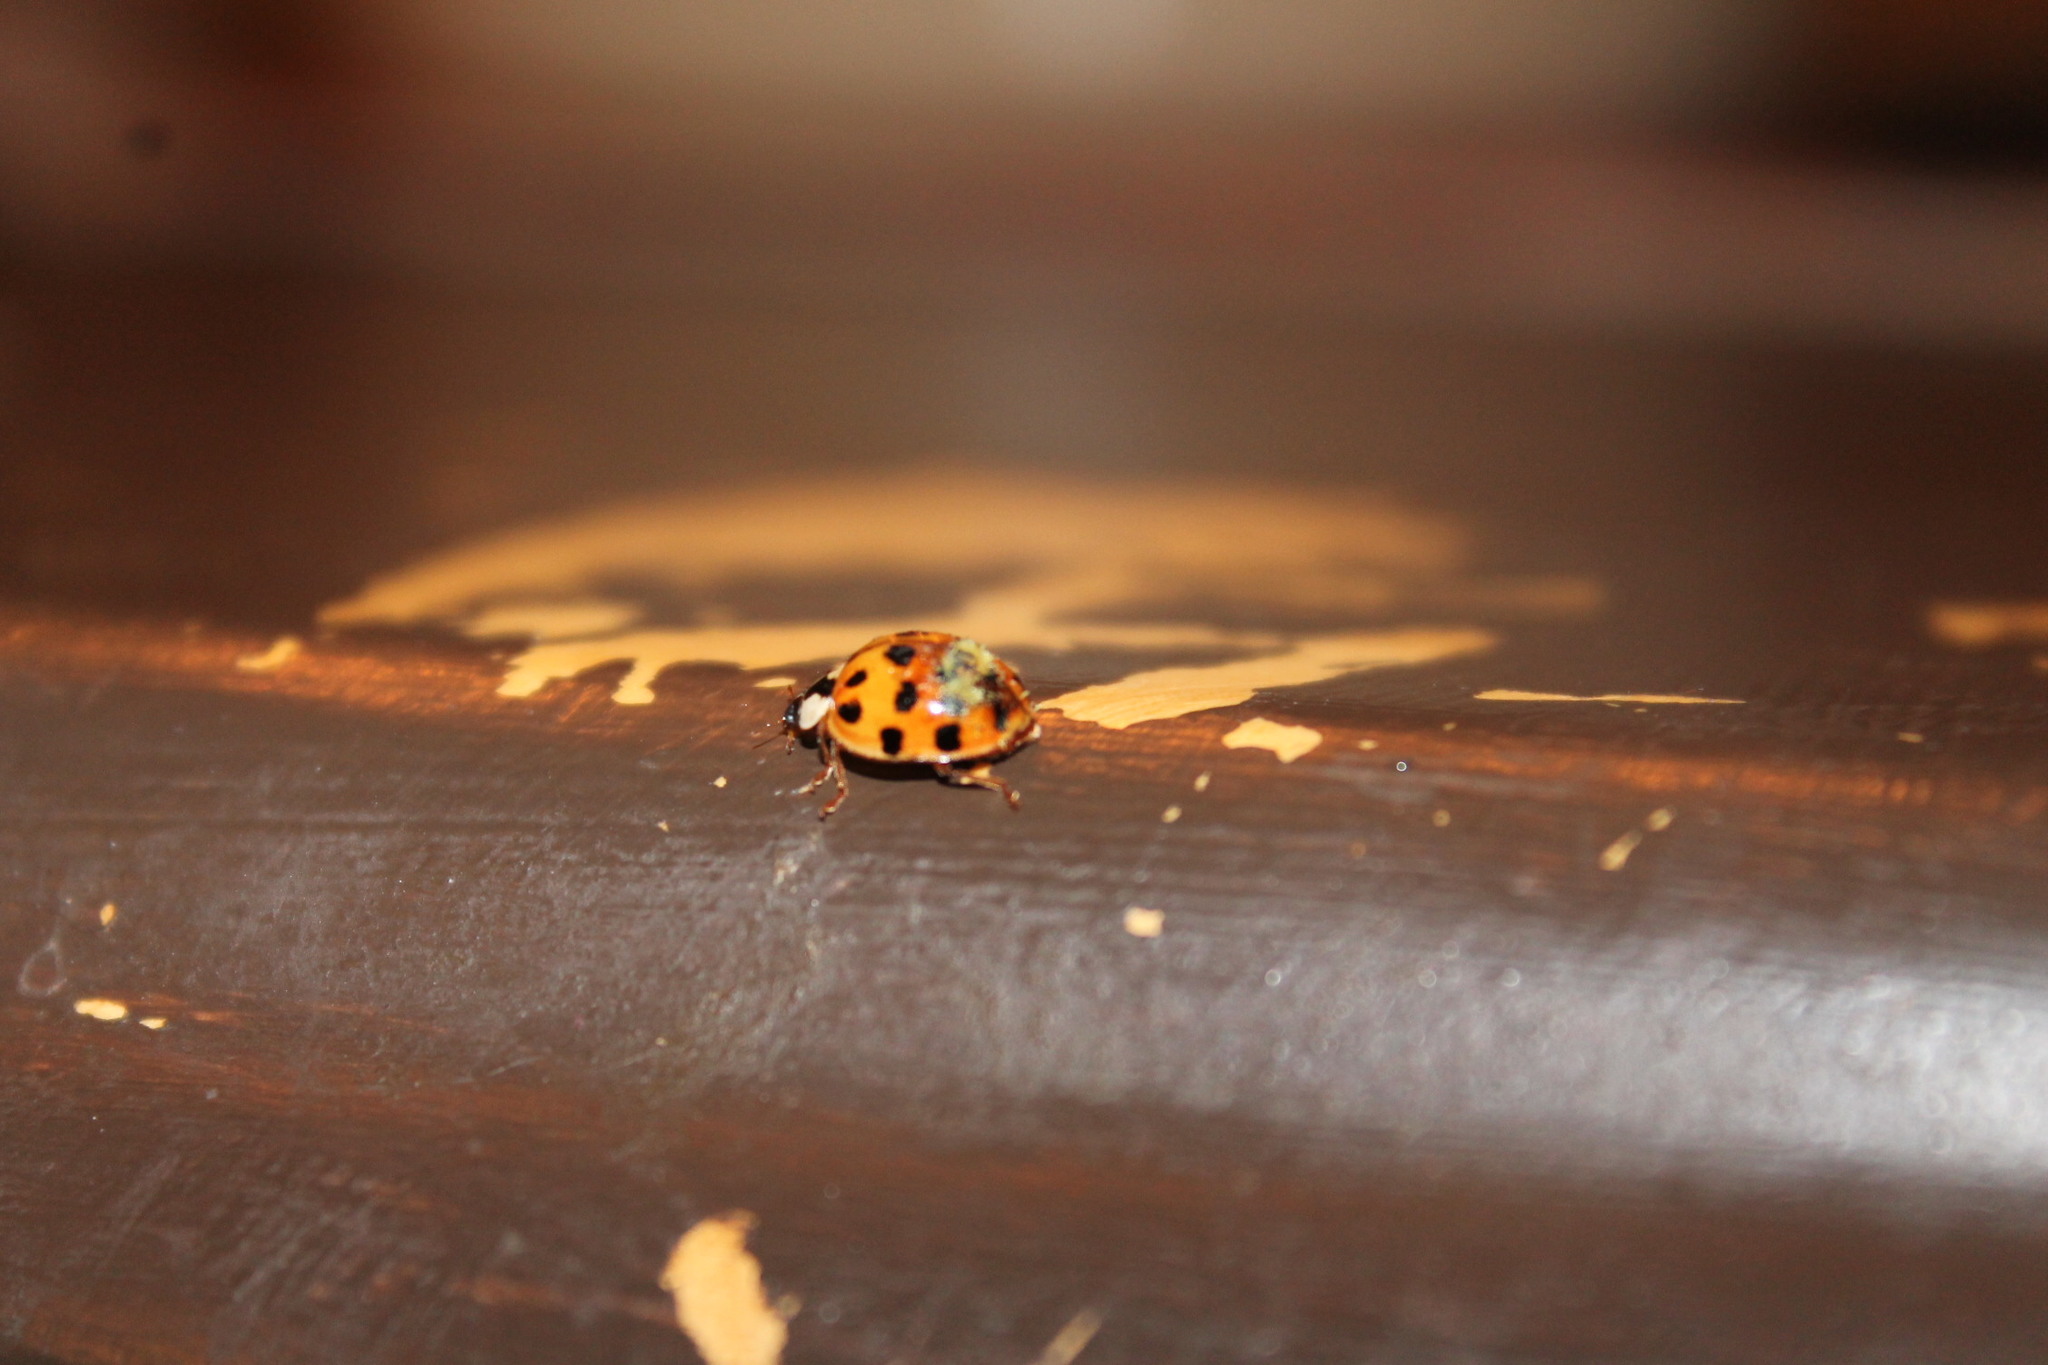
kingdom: Animalia
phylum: Arthropoda
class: Insecta
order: Coleoptera
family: Coccinellidae
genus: Harmonia
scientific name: Harmonia axyridis
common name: Harlequin ladybird
